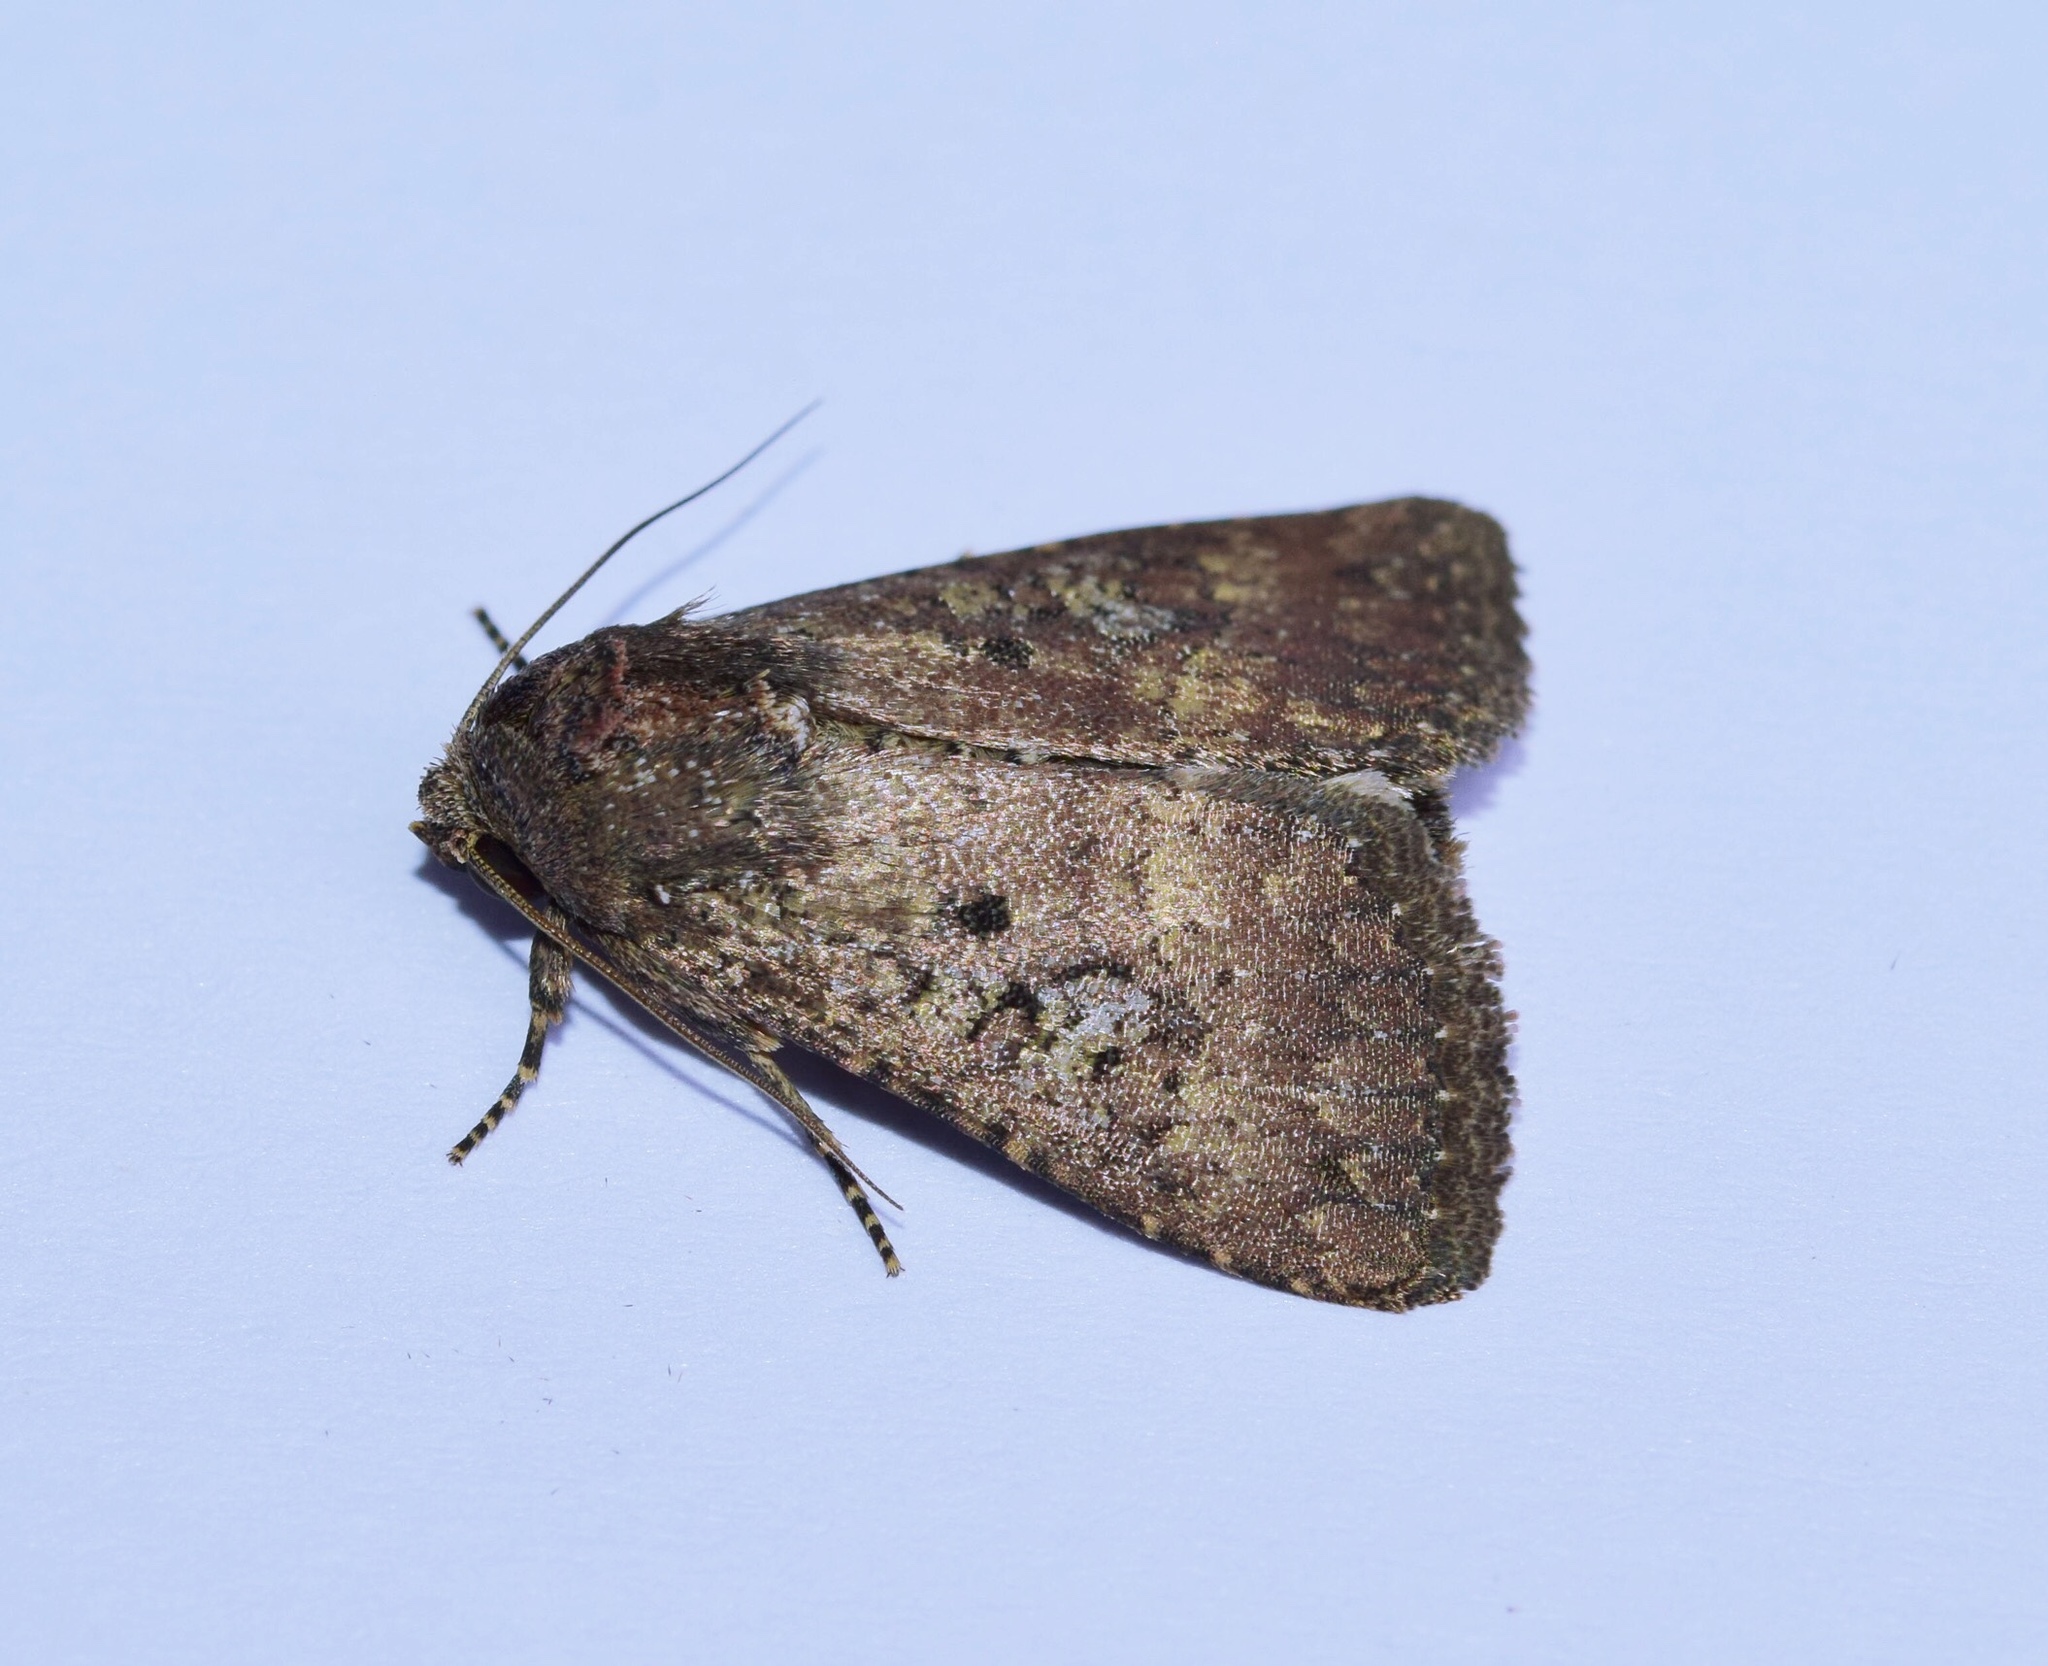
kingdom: Animalia
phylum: Arthropoda
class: Insecta
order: Lepidoptera
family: Noctuidae
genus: Condica
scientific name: Condica capensis
